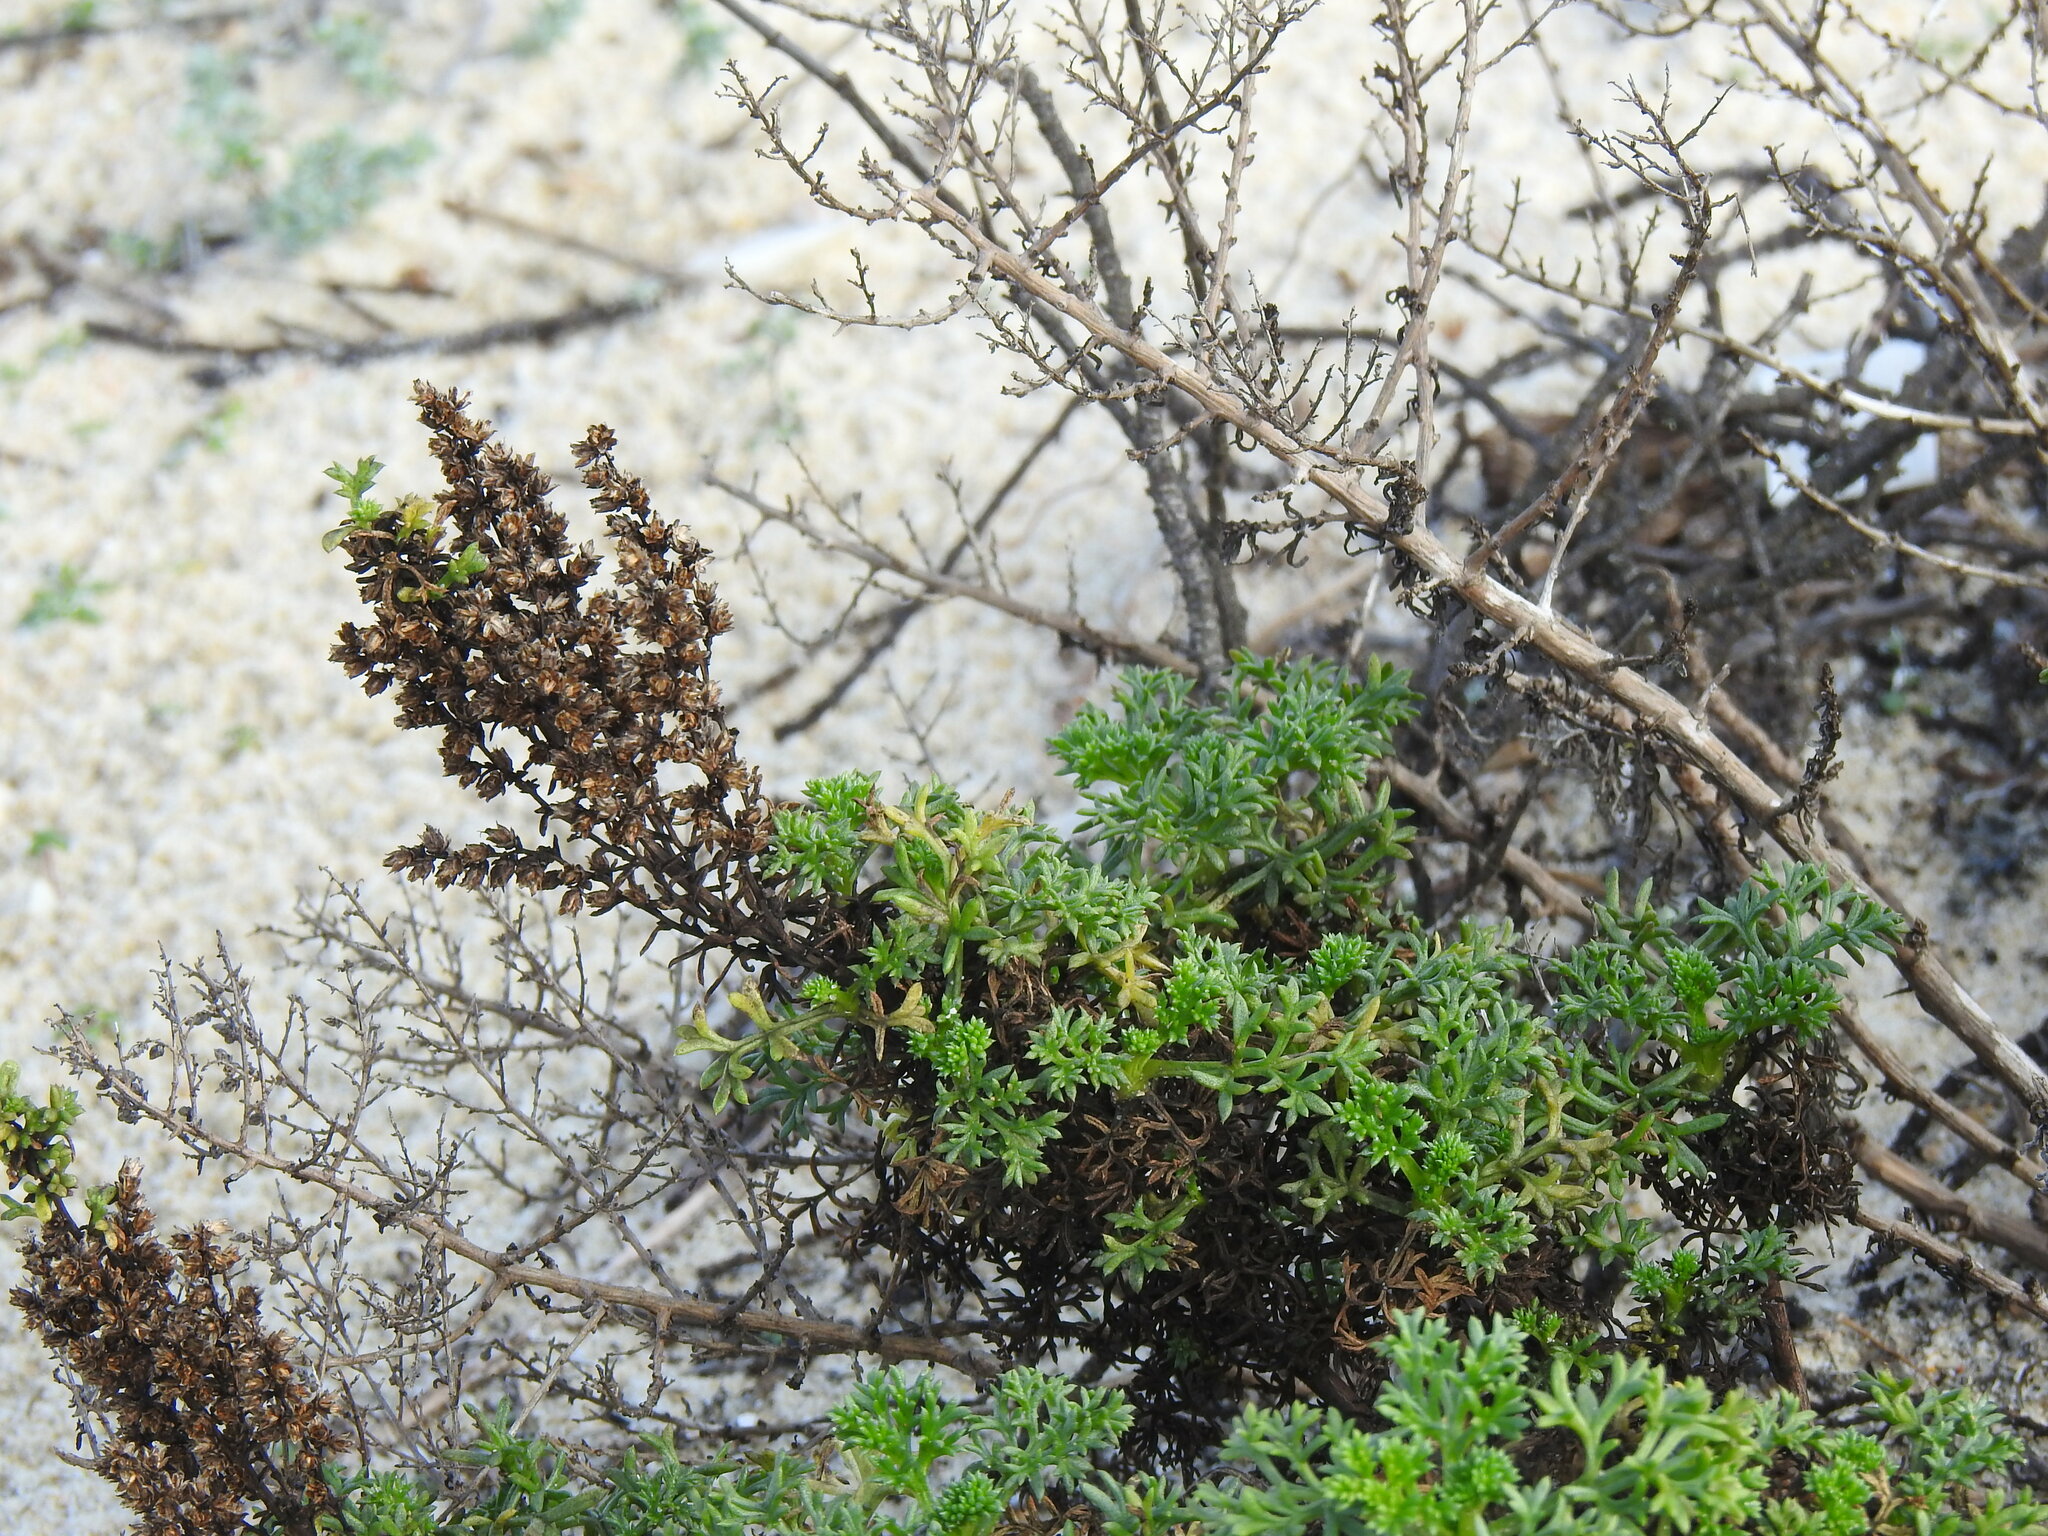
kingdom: Plantae
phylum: Tracheophyta
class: Magnoliopsida
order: Asterales
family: Asteraceae
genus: Artemisia
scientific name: Artemisia crithmifolia
